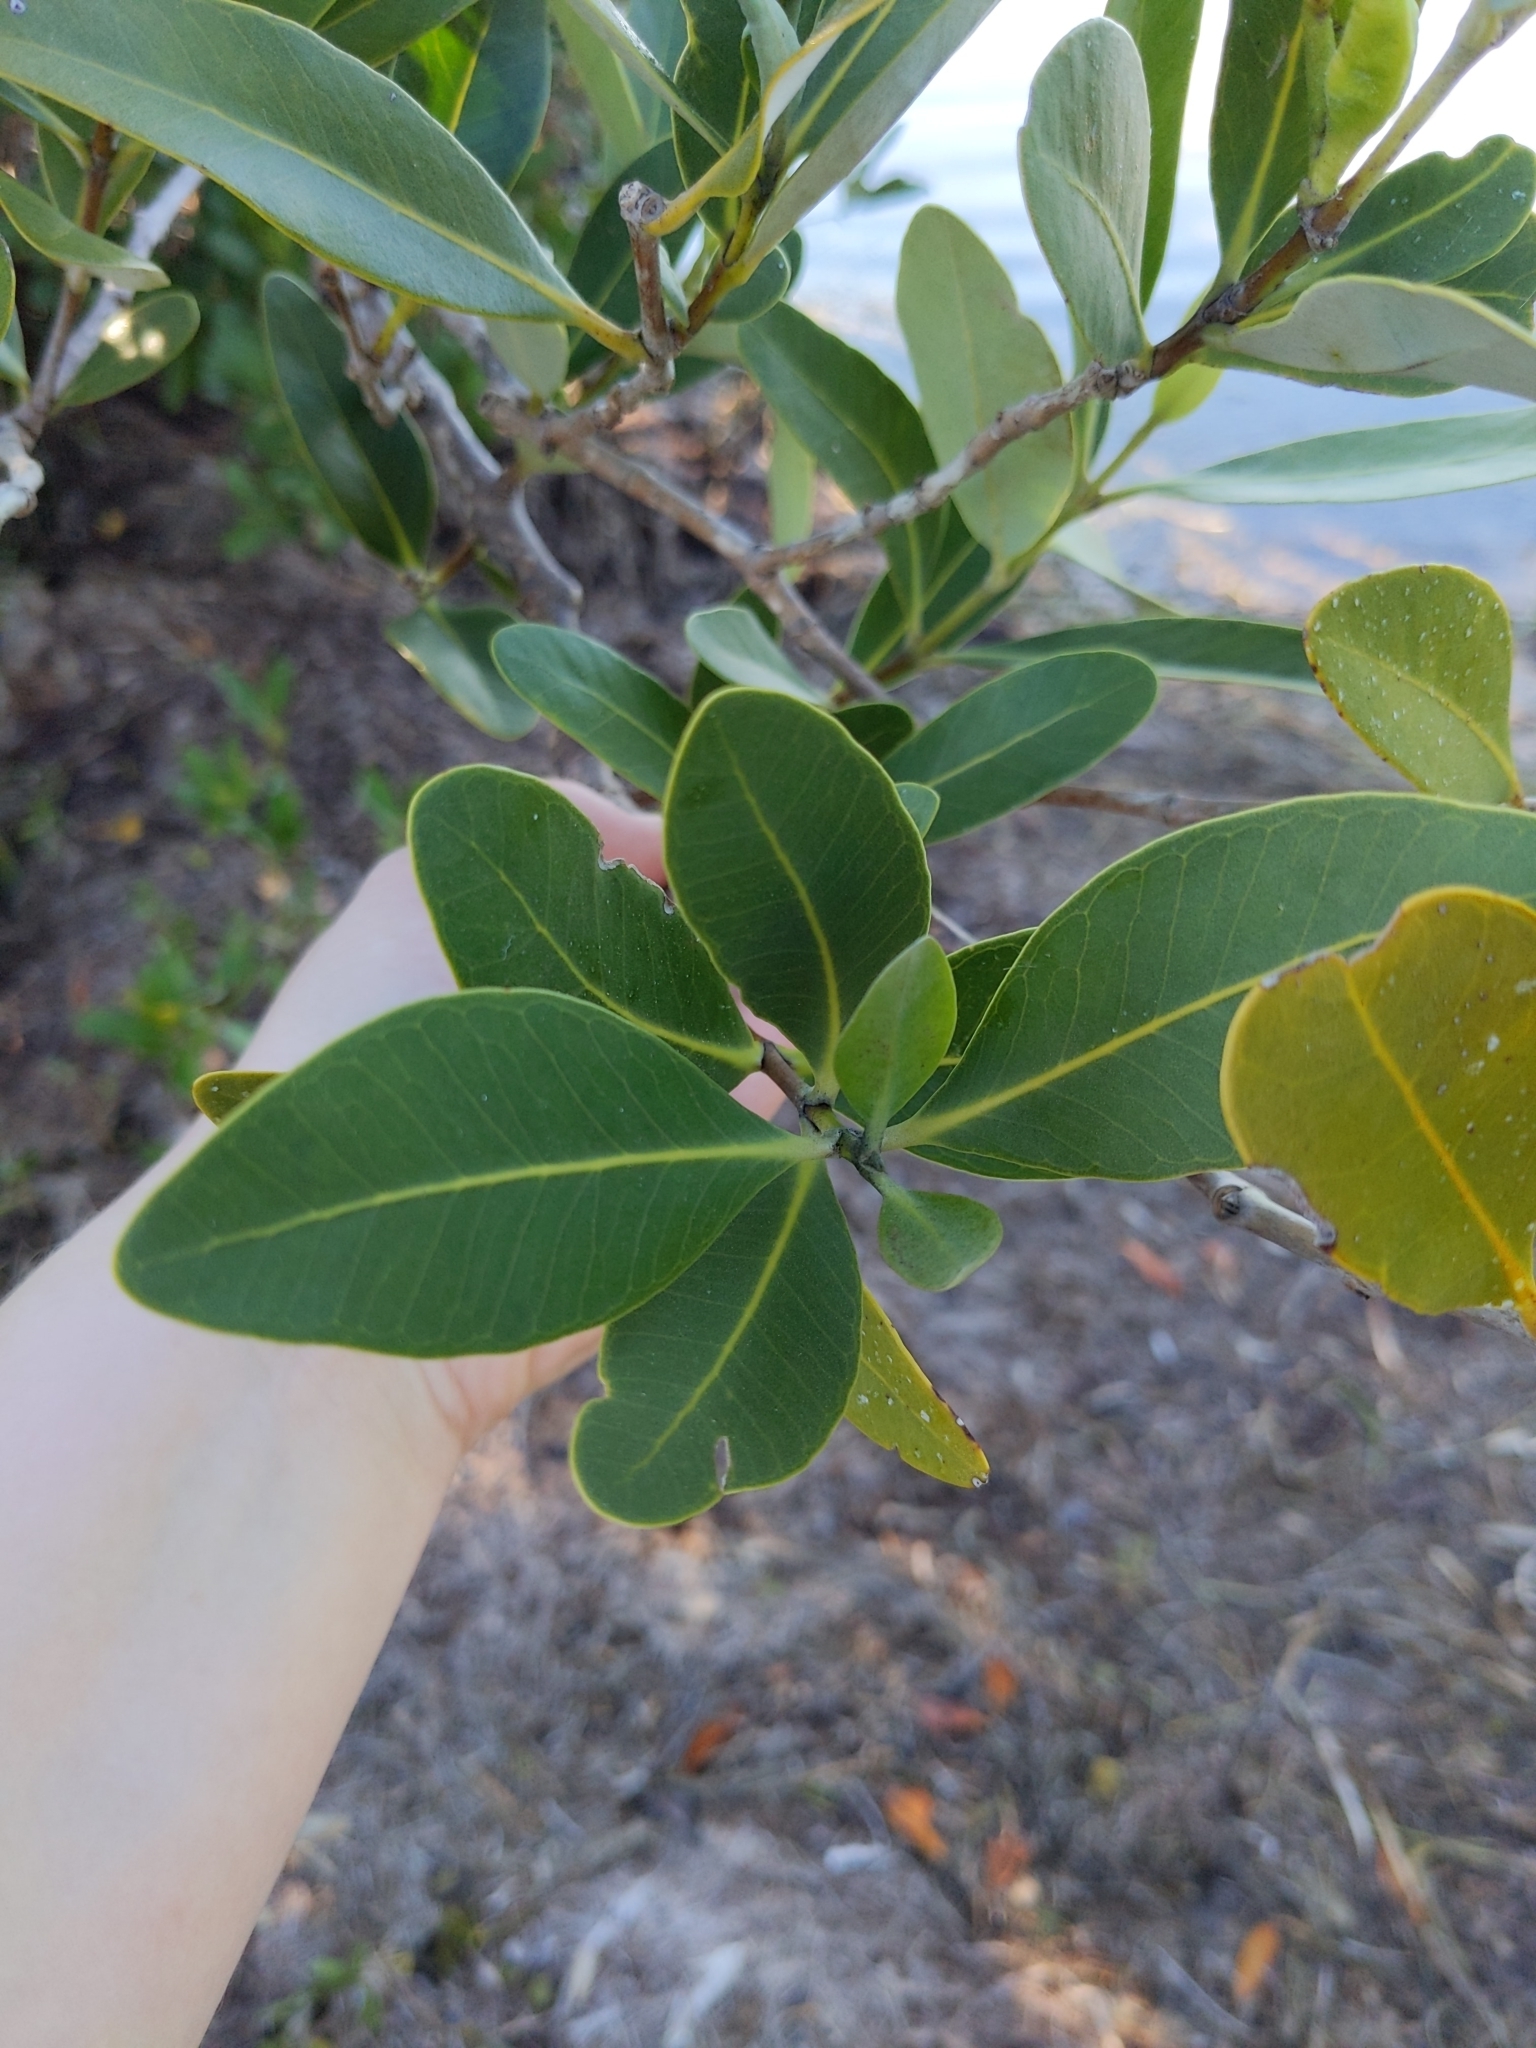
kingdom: Plantae
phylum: Tracheophyta
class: Magnoliopsida
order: Lamiales
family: Acanthaceae
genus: Avicennia
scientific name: Avicennia germinans
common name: Black mangrove
